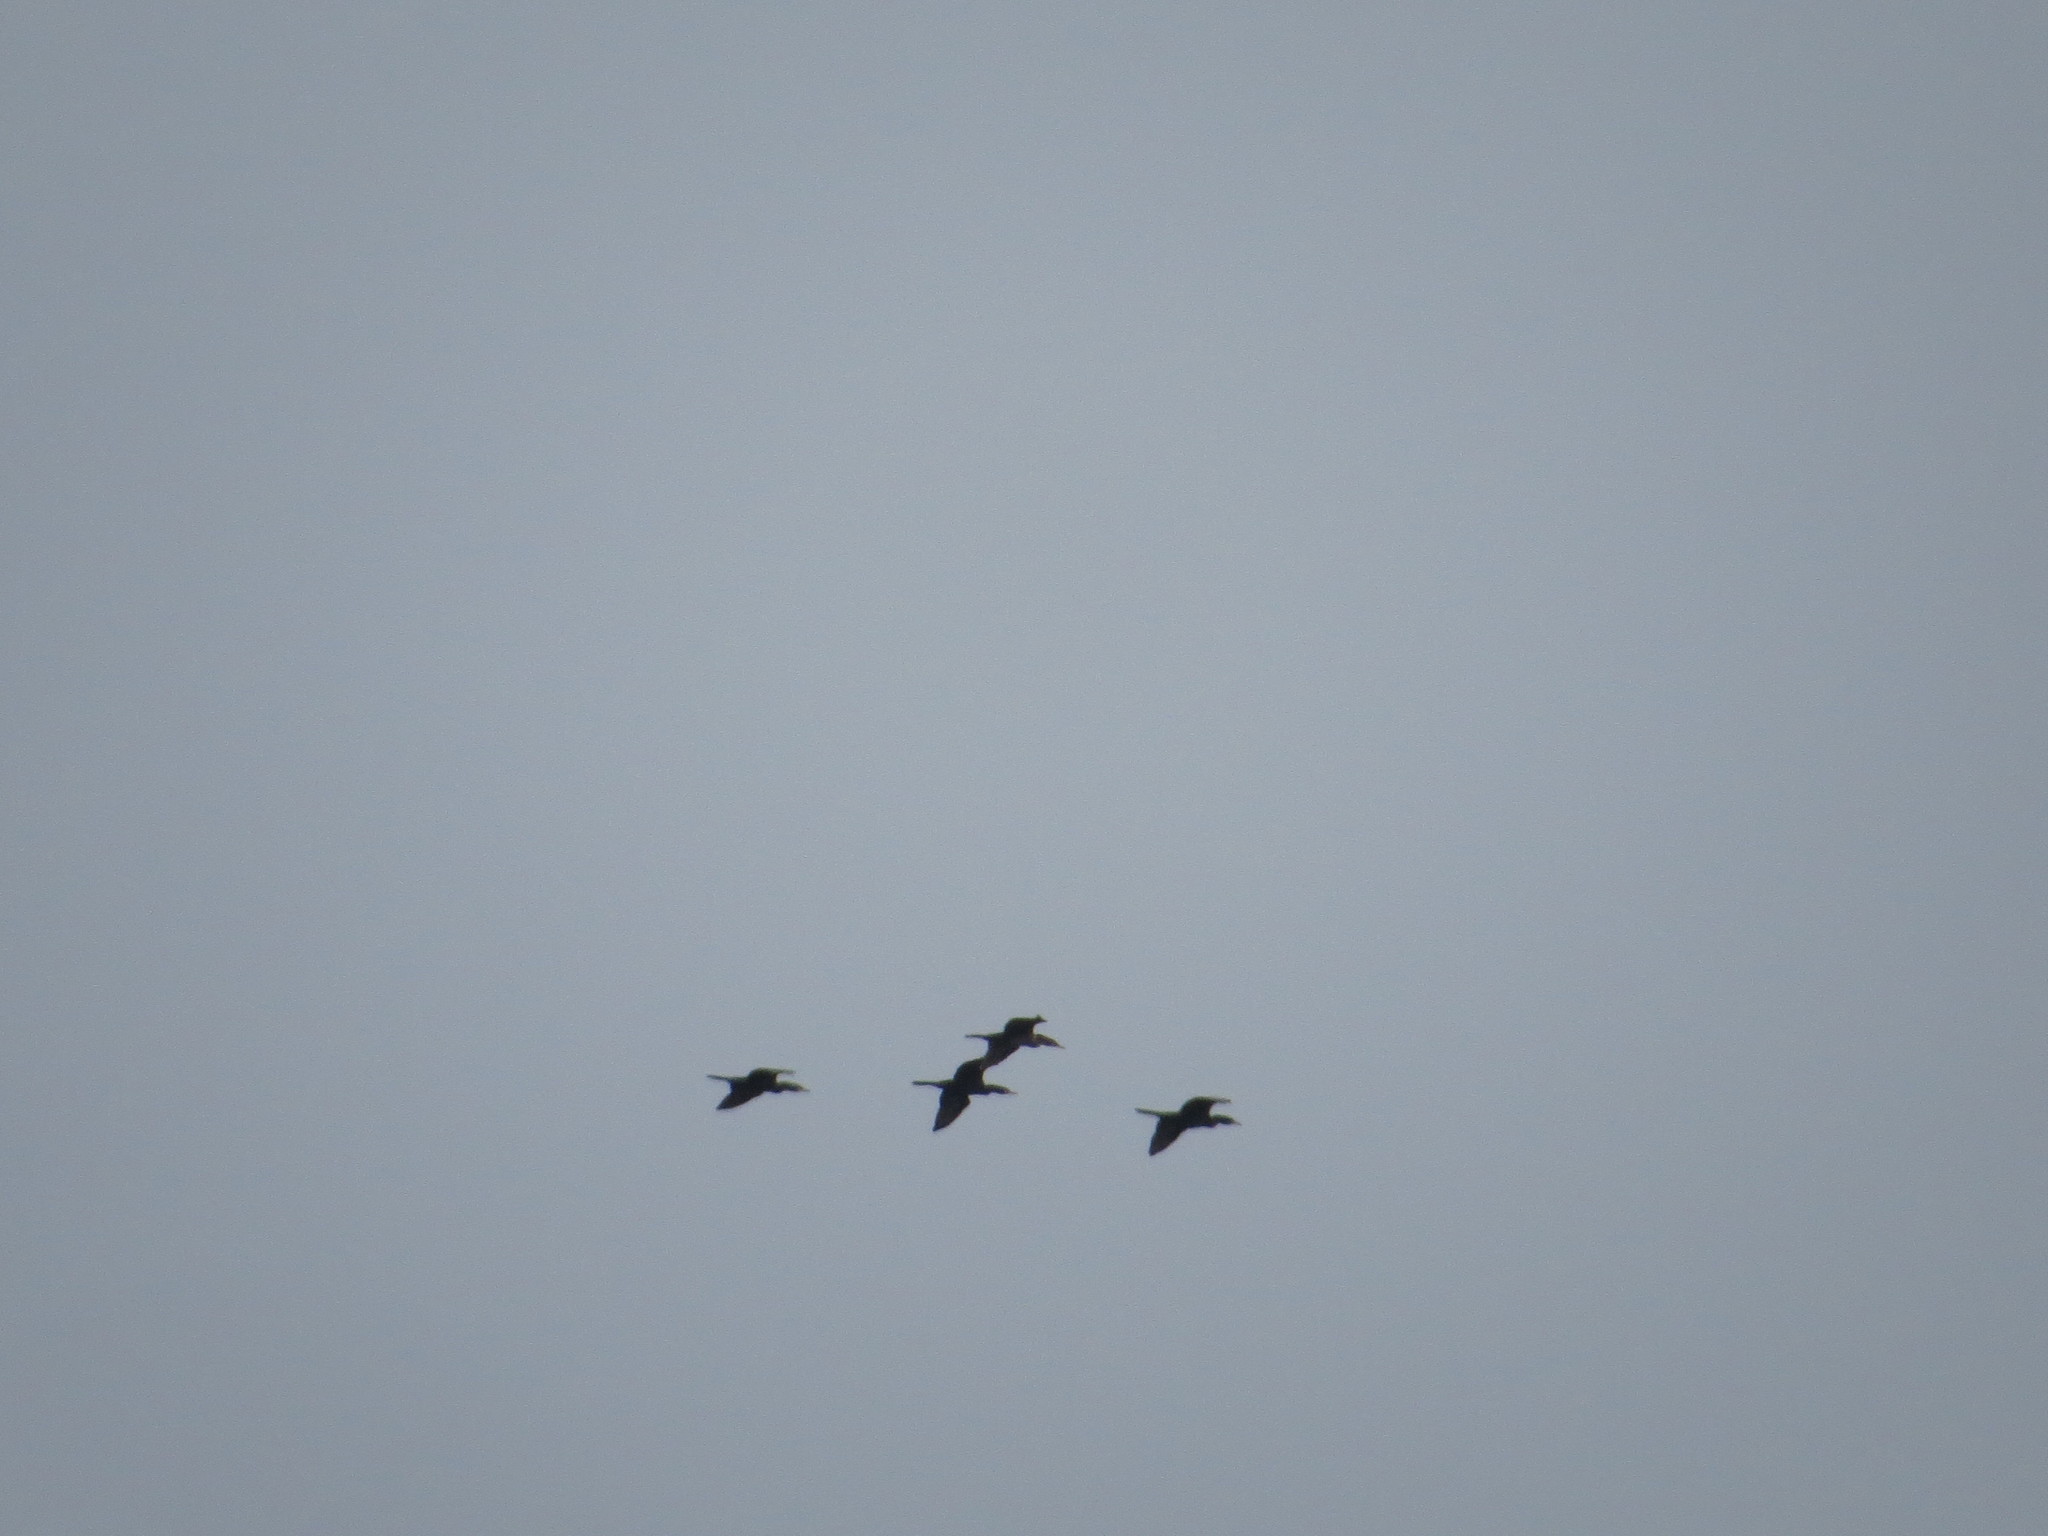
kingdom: Animalia
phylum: Chordata
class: Aves
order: Suliformes
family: Phalacrocoracidae
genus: Phalacrocorax
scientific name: Phalacrocorax brasilianus
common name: Neotropic cormorant
